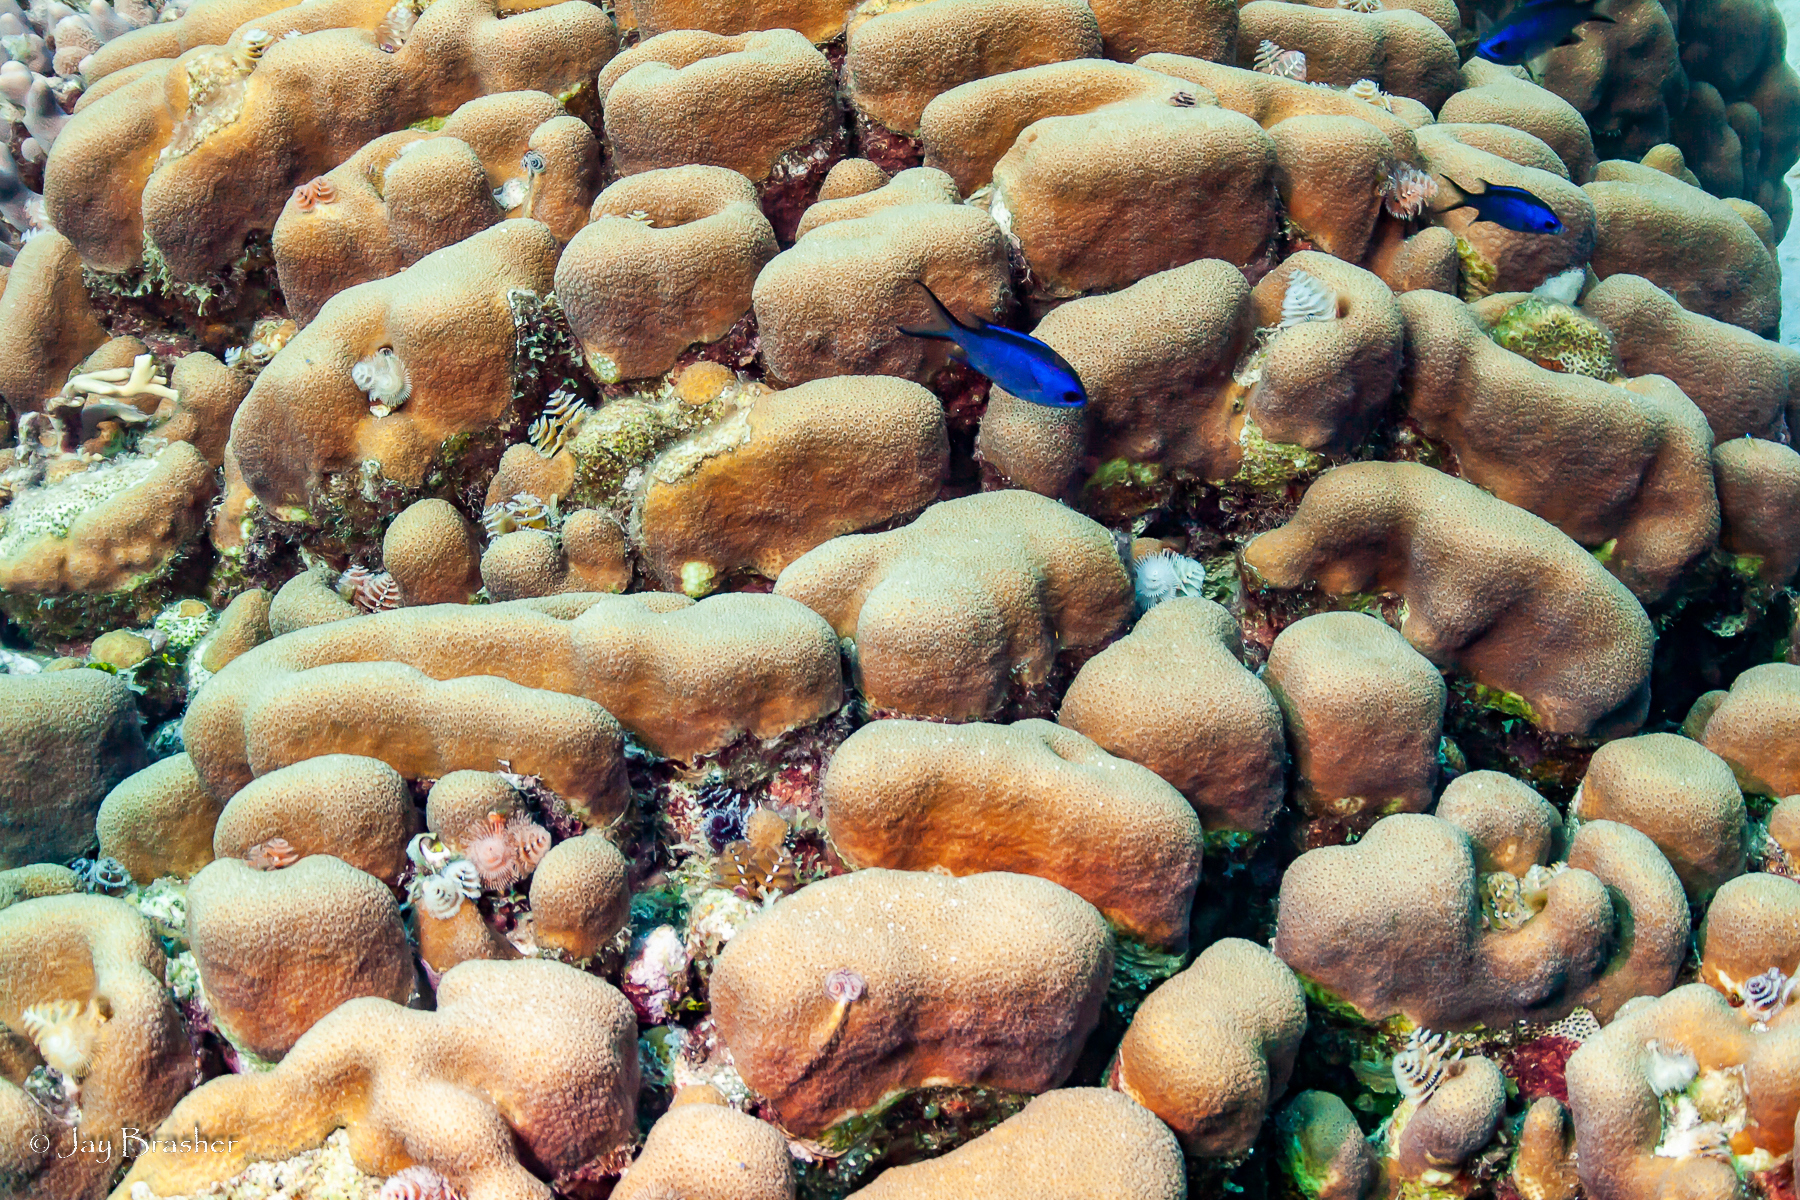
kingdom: Animalia
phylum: Chordata
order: Perciformes
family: Pomacentridae
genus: Chromis
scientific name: Chromis cyanea
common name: Blue chromis
